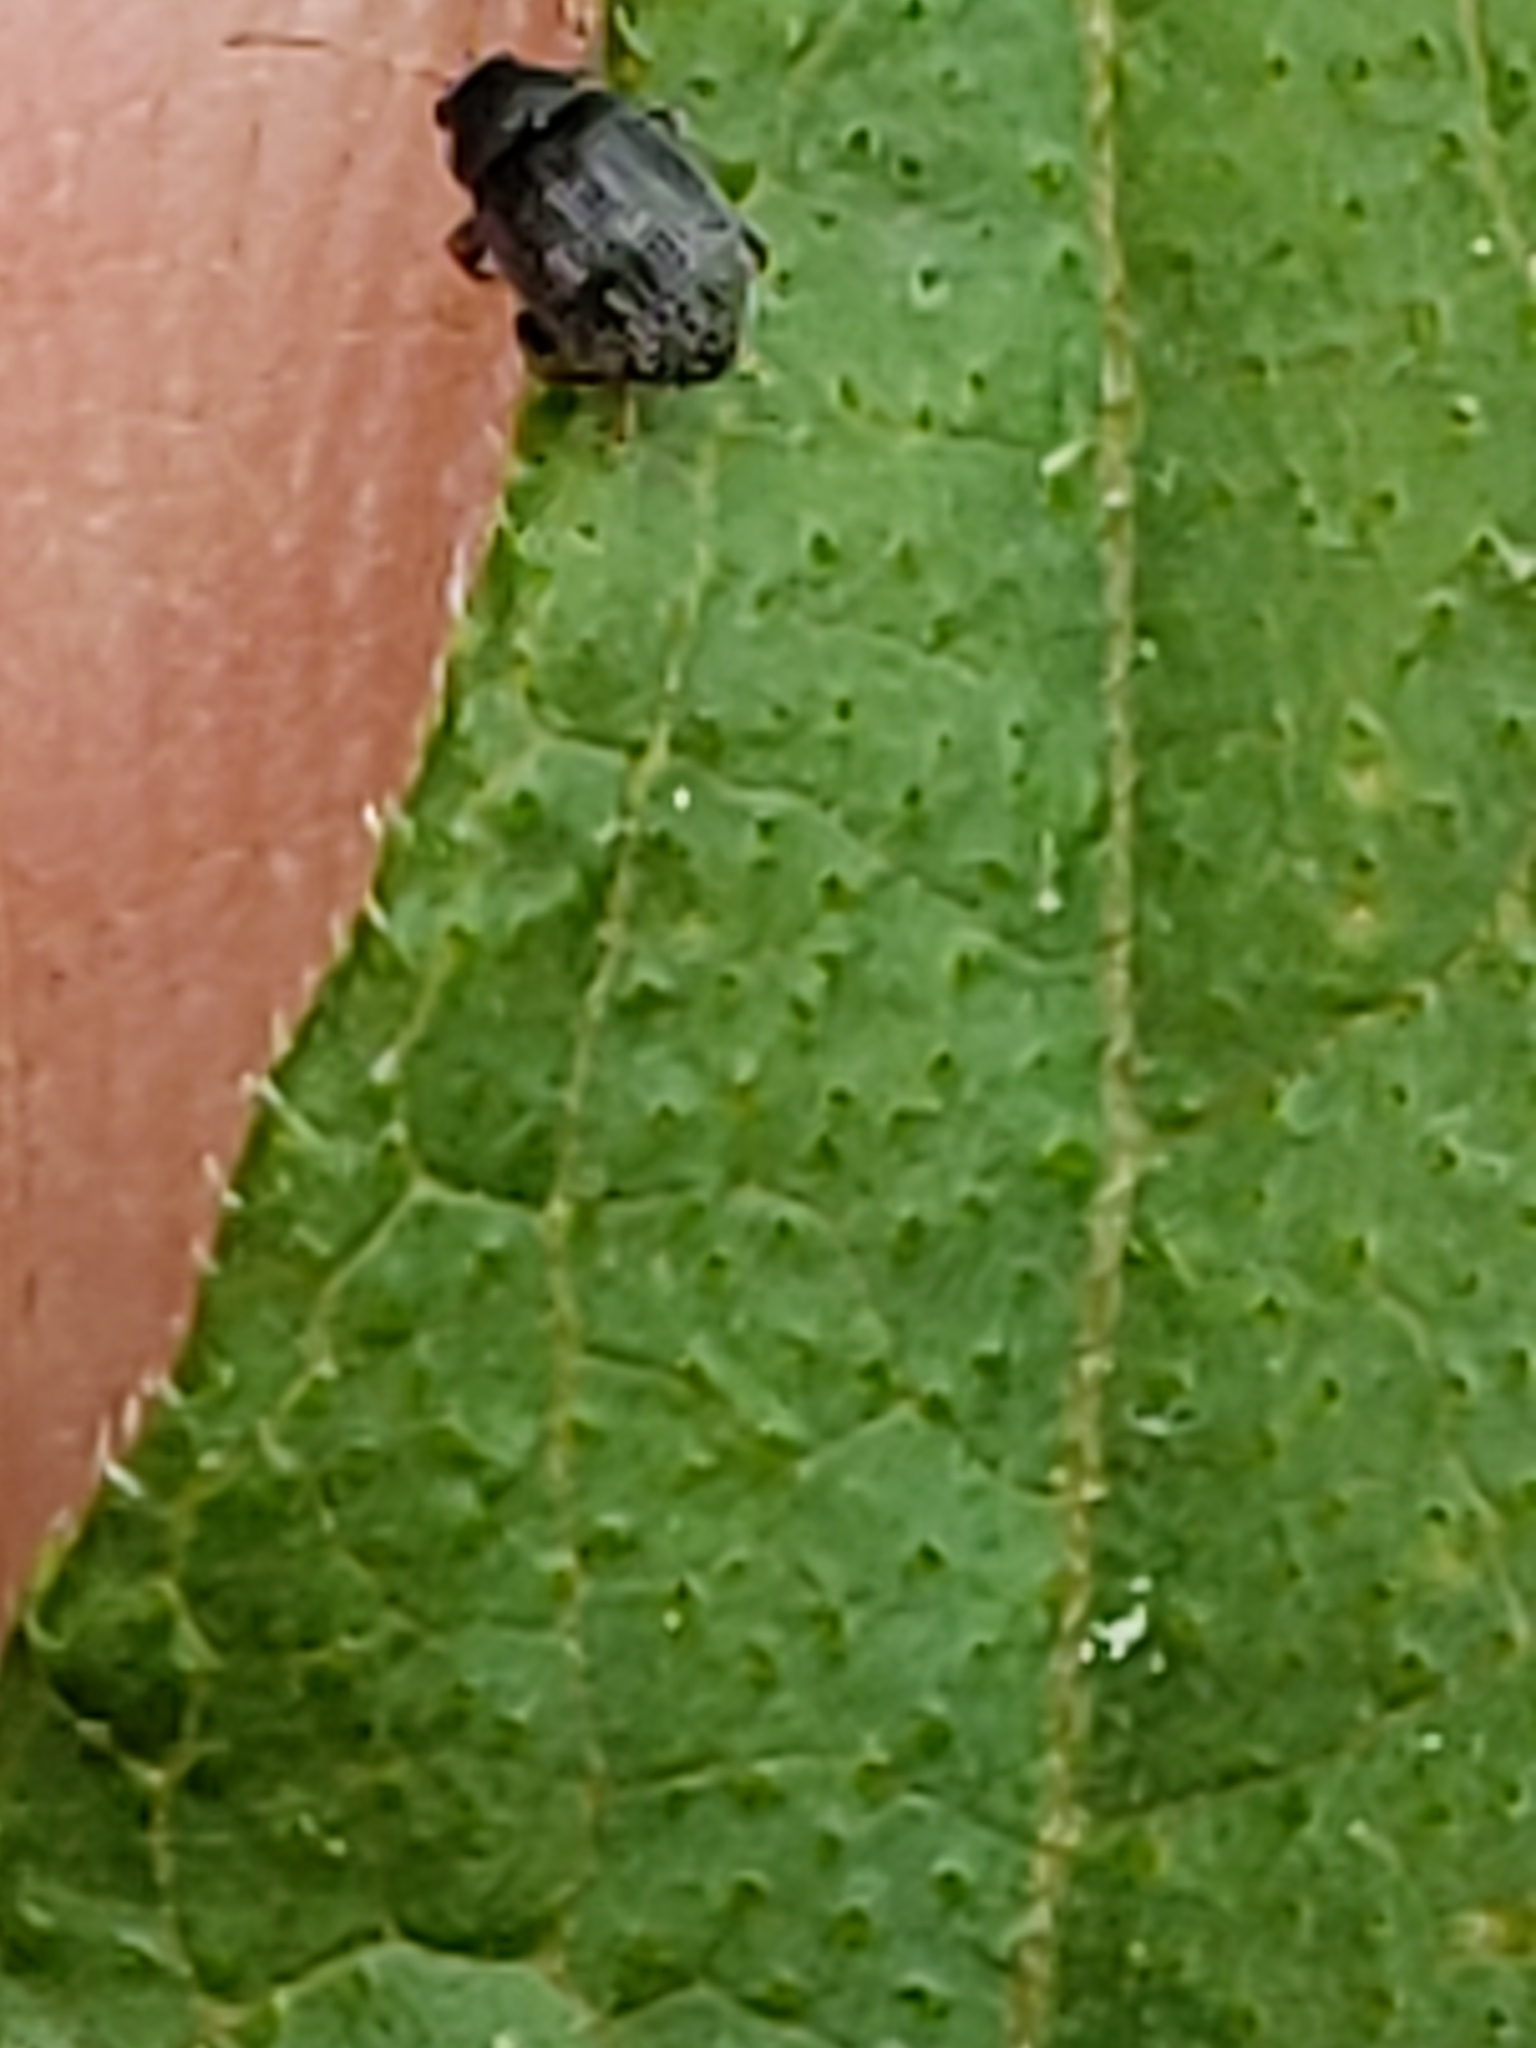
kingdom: Animalia
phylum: Arthropoda
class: Insecta
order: Coleoptera
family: Chrysomelidae
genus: Epitrix
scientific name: Epitrix fuscula
